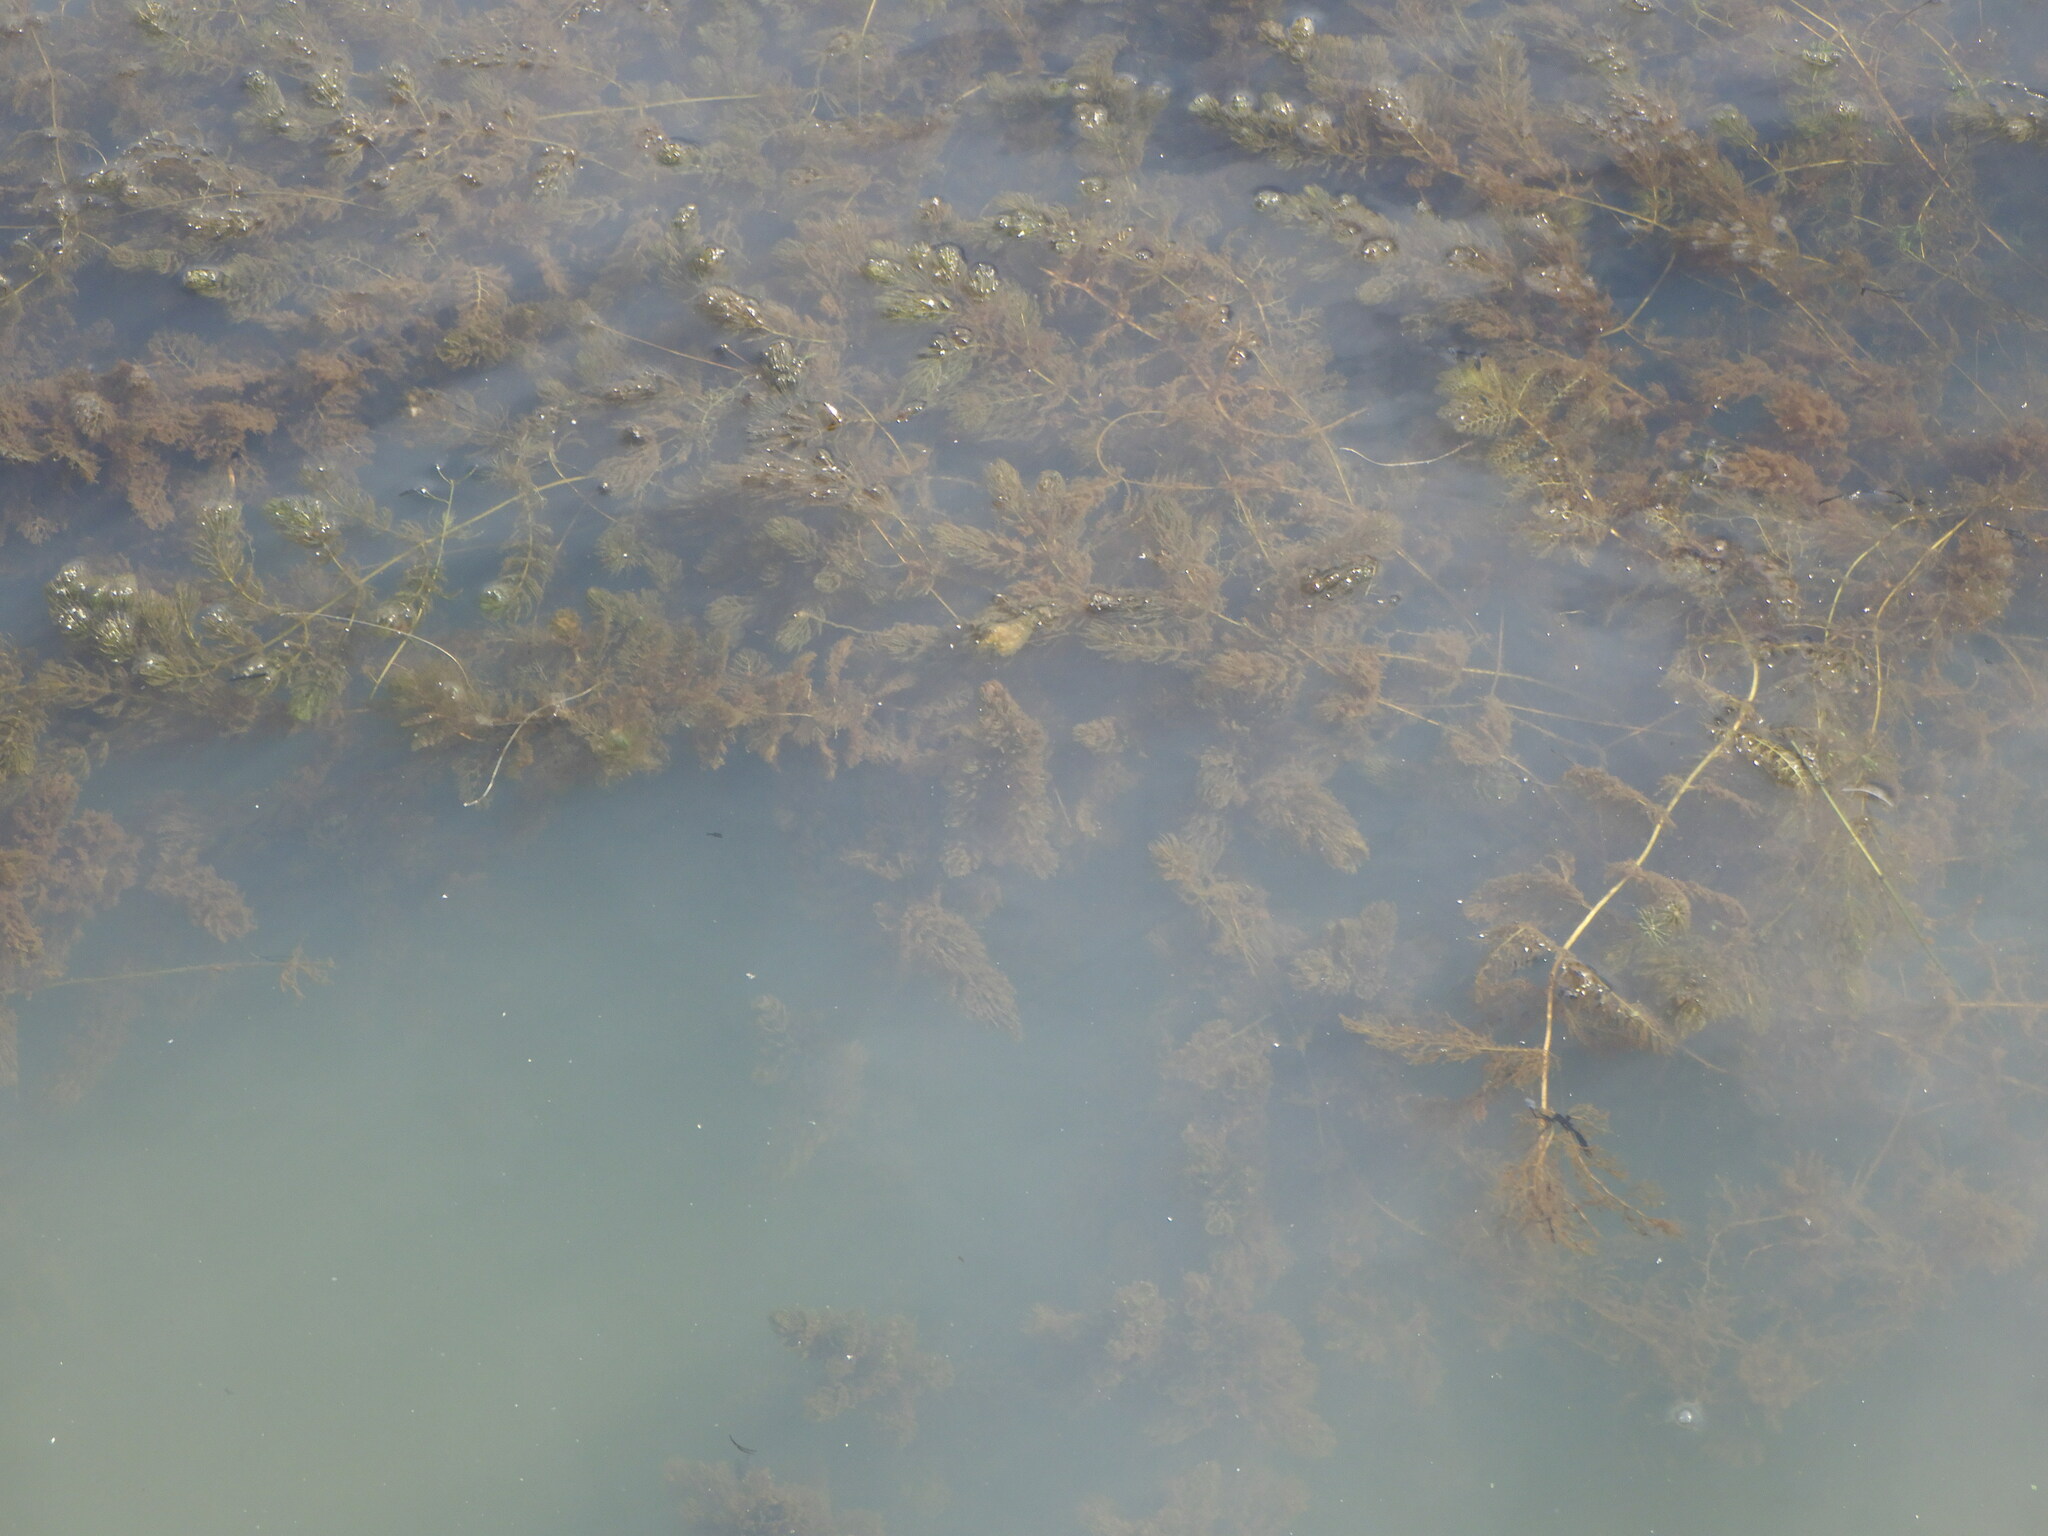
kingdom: Plantae
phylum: Tracheophyta
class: Magnoliopsida
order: Ceratophyllales
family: Ceratophyllaceae
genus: Ceratophyllum
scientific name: Ceratophyllum demersum
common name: Rigid hornwort
